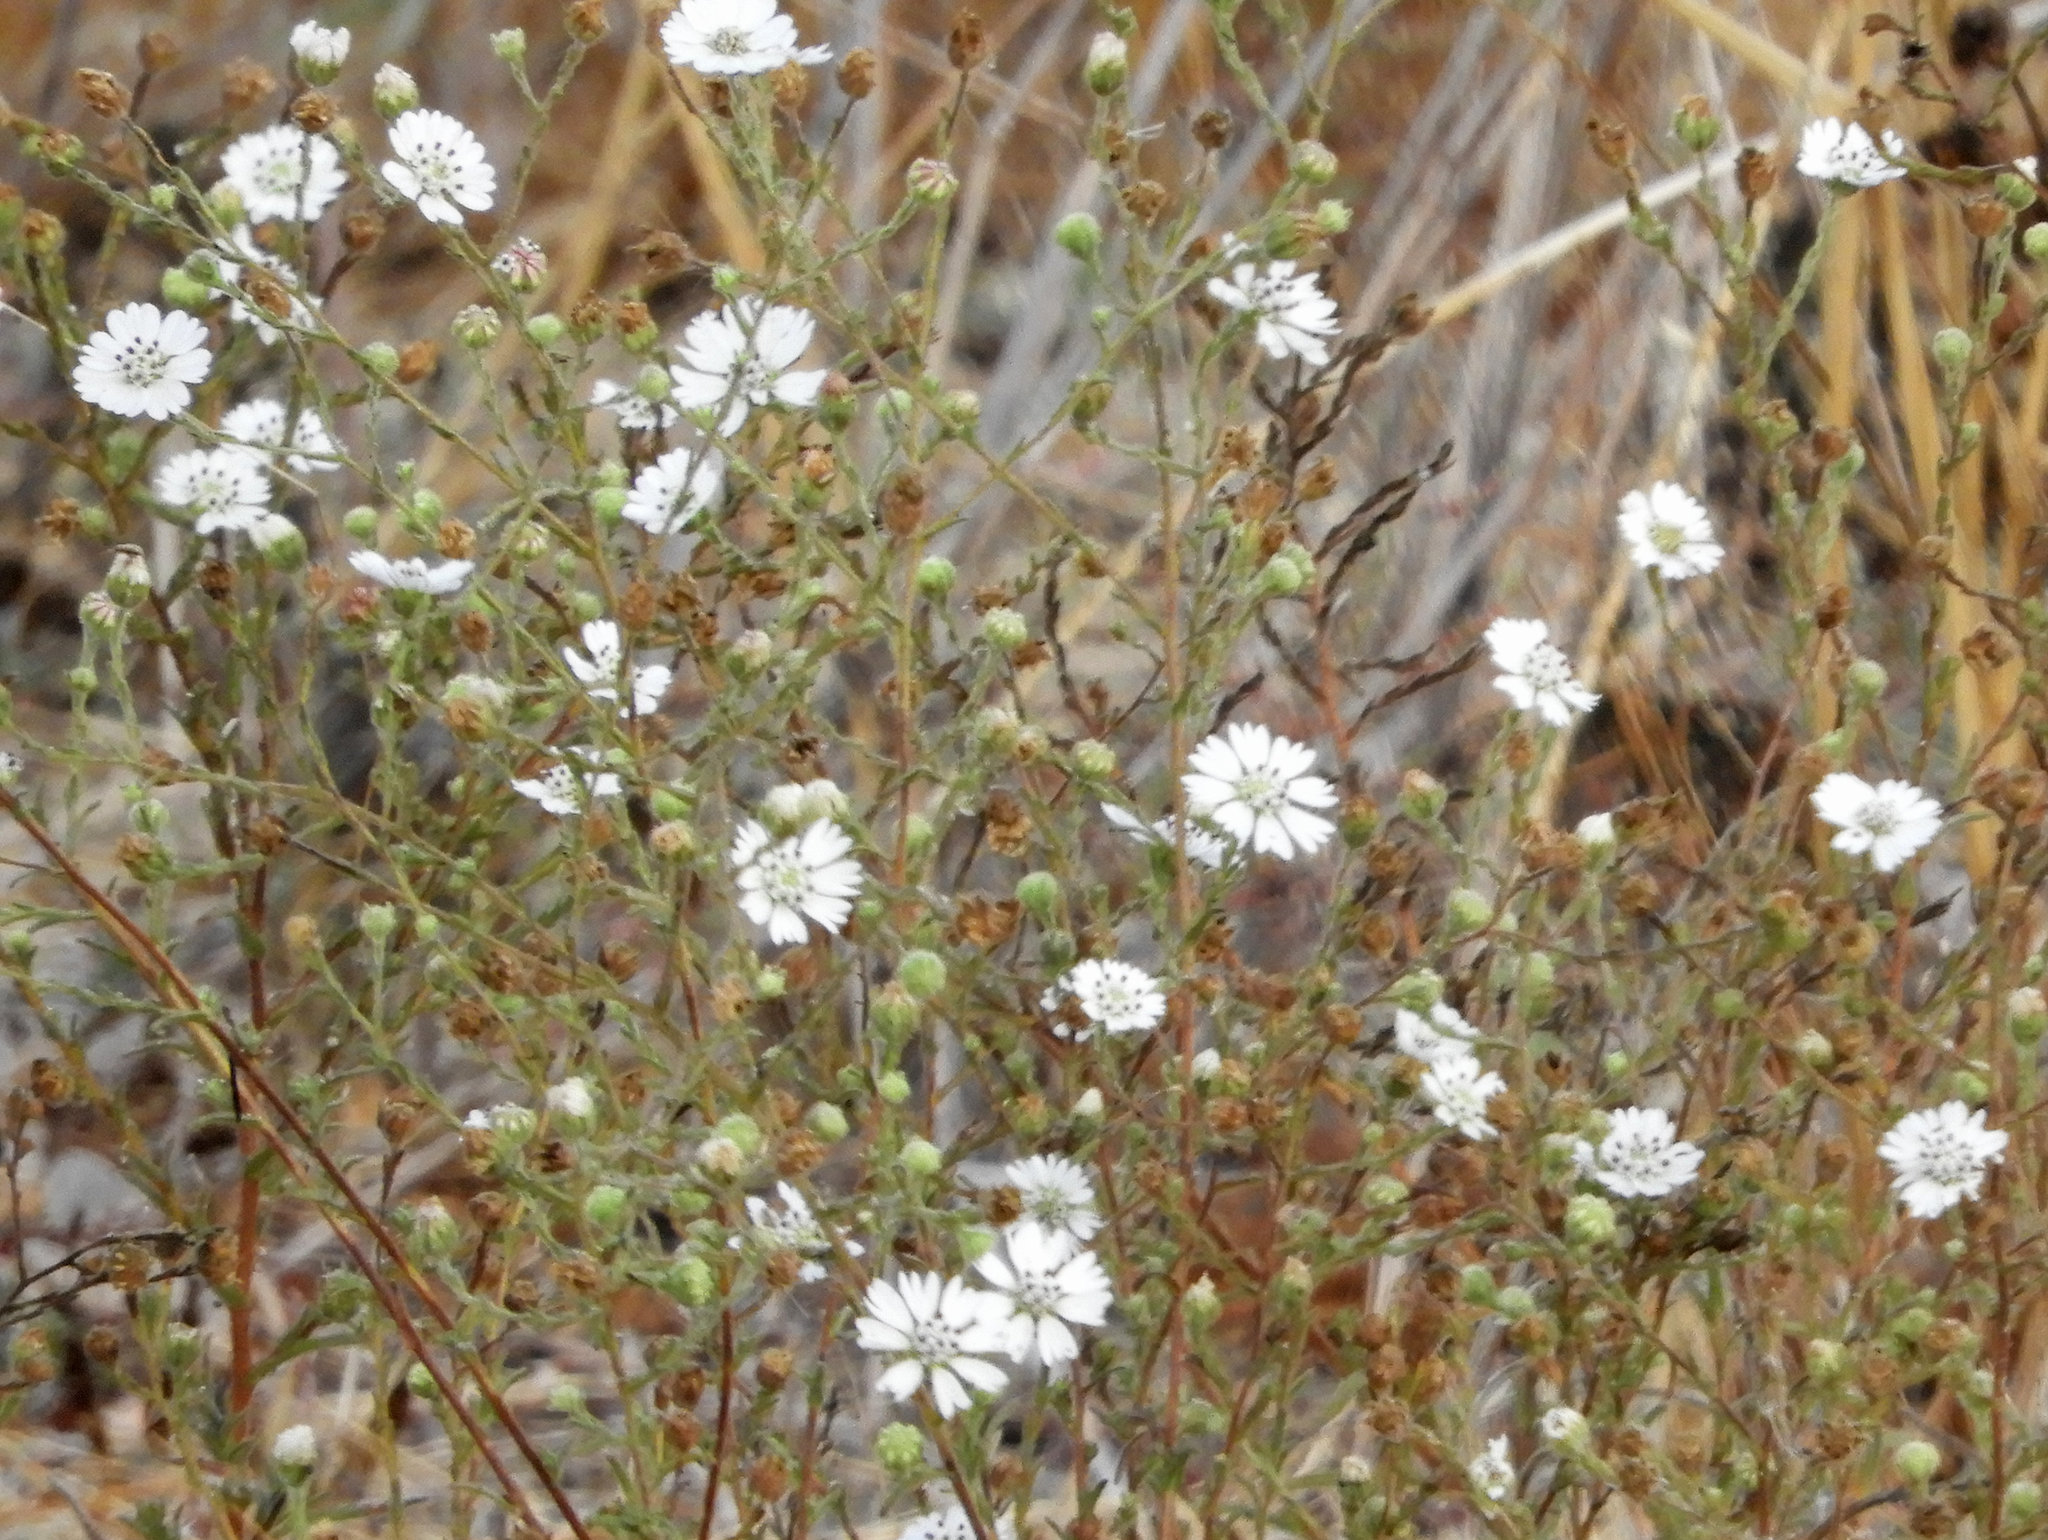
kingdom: Plantae
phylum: Tracheophyta
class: Magnoliopsida
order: Asterales
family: Asteraceae
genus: Hemizonia
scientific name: Hemizonia congesta
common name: Hayfield tarweed
